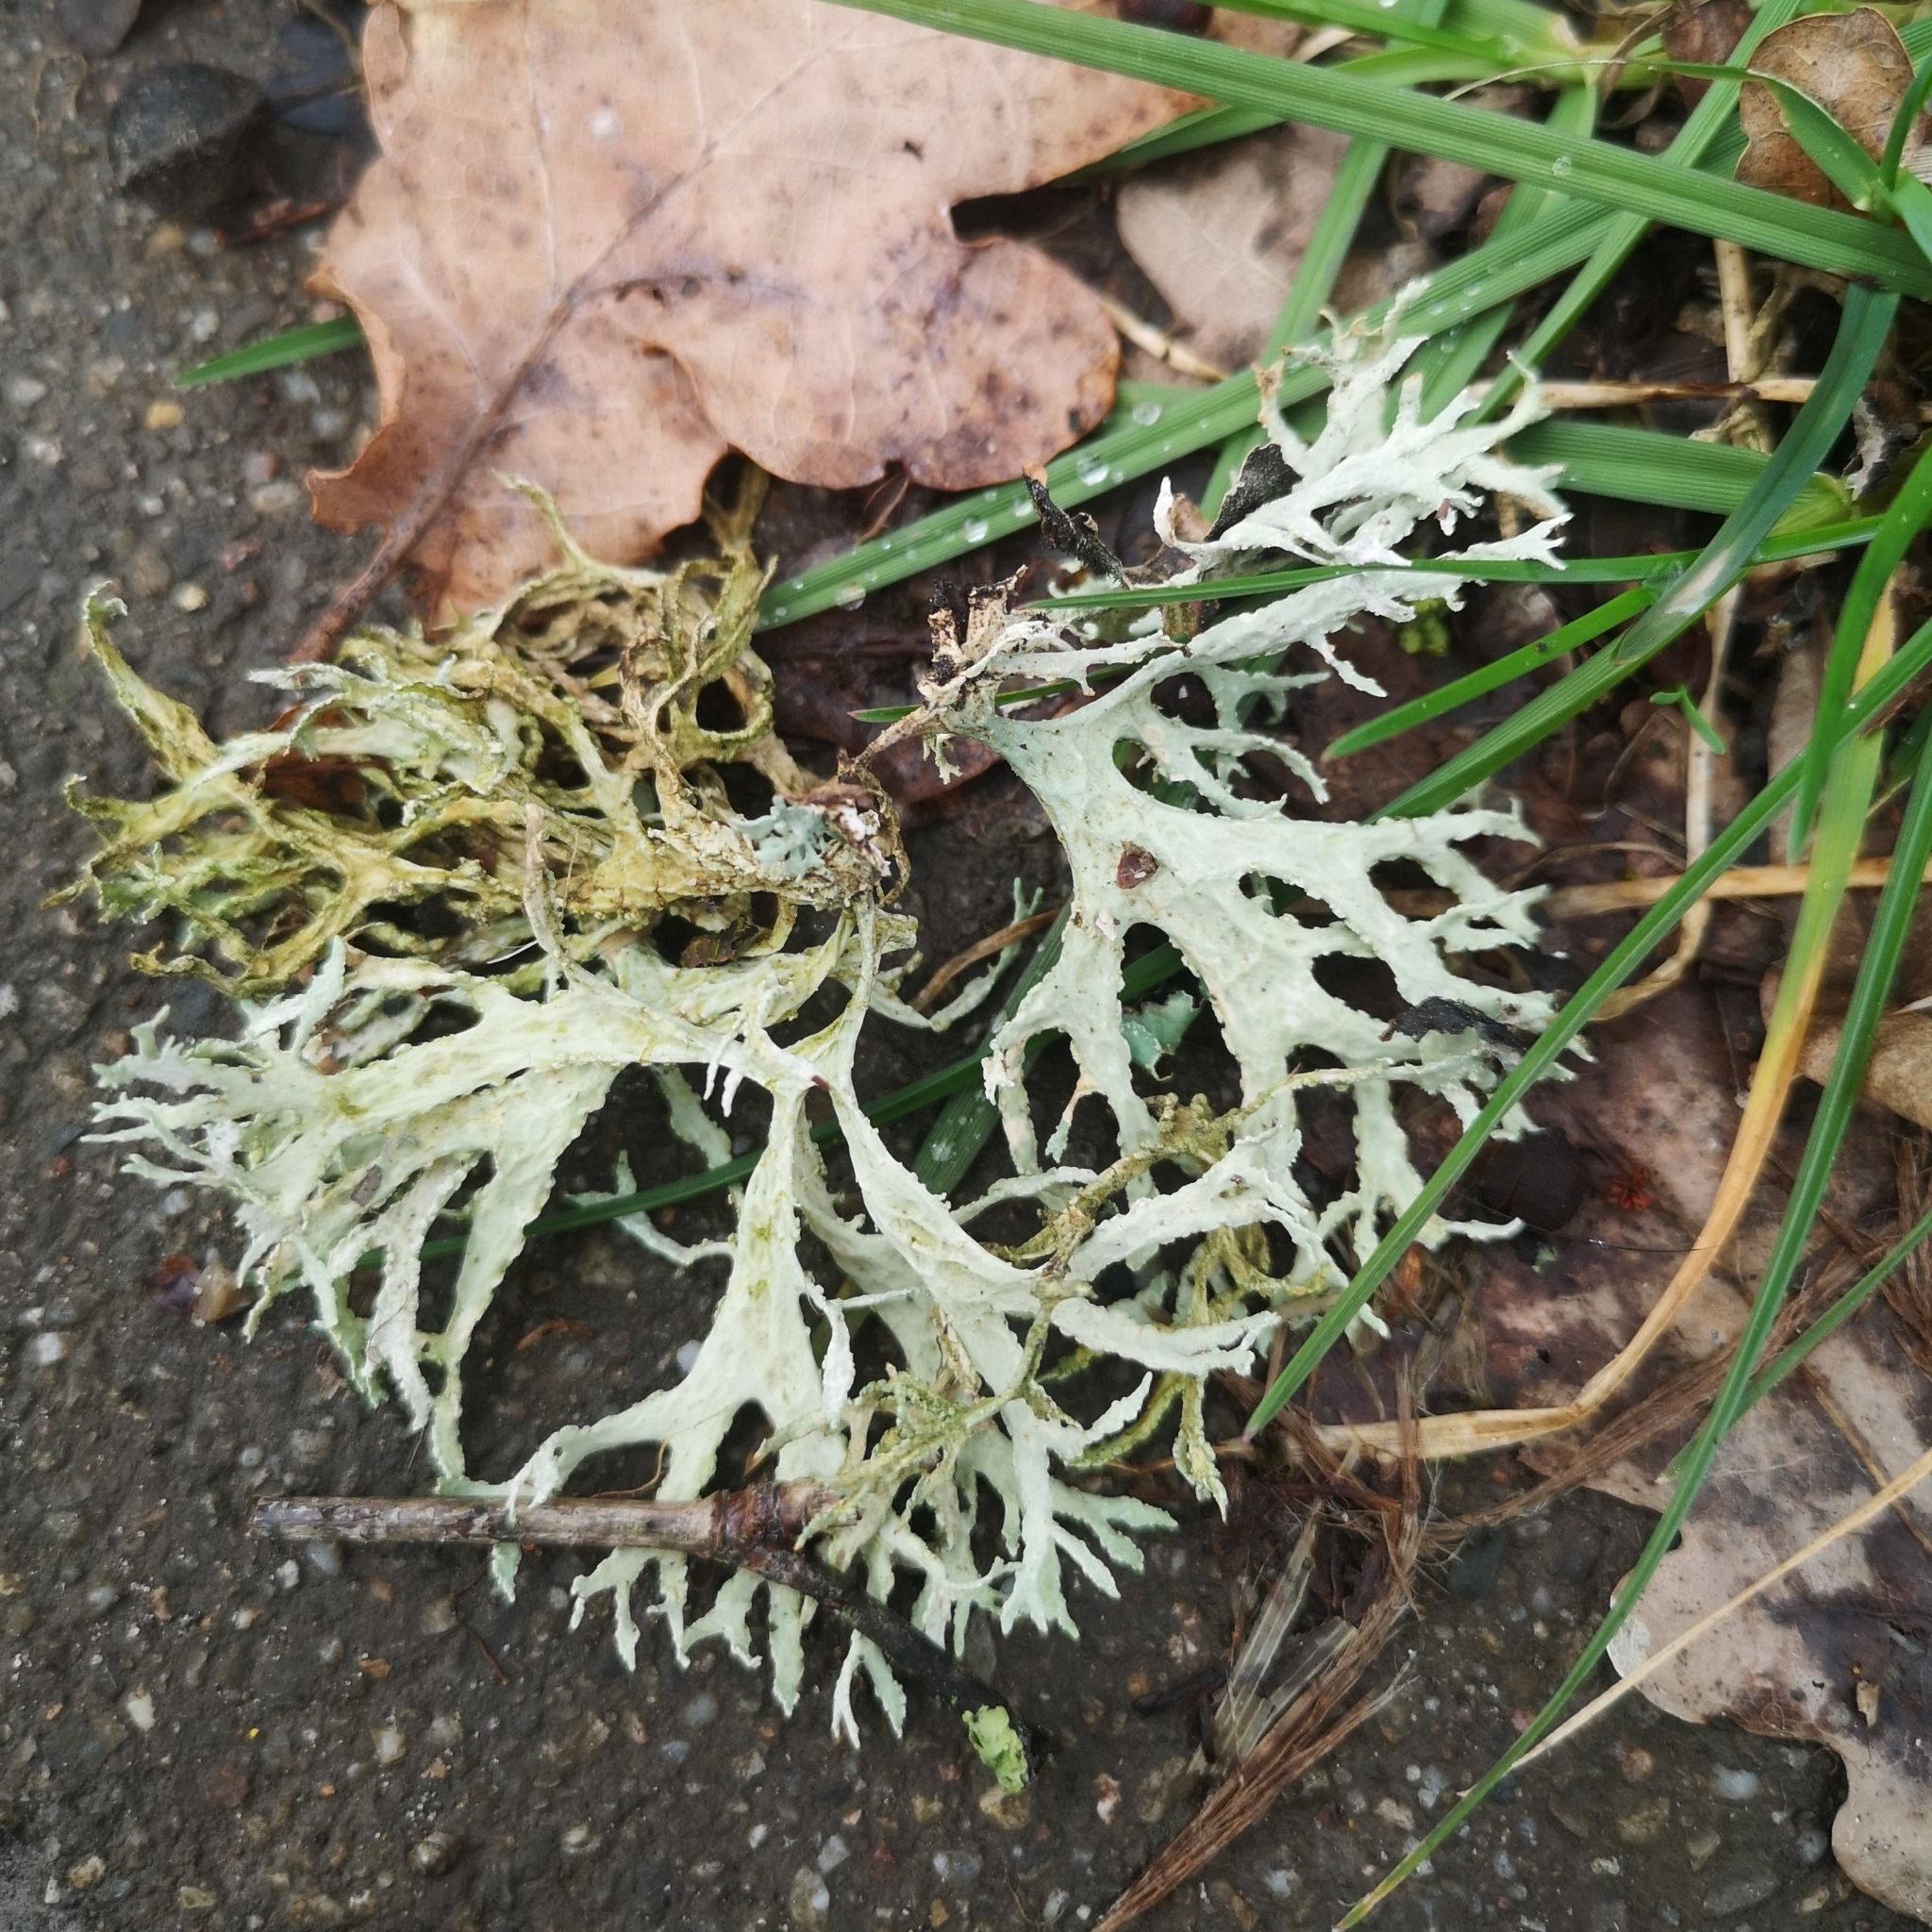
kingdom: Fungi
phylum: Ascomycota
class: Lecanoromycetes
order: Lecanorales
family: Parmeliaceae
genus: Evernia
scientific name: Evernia prunastri
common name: Oak moss
